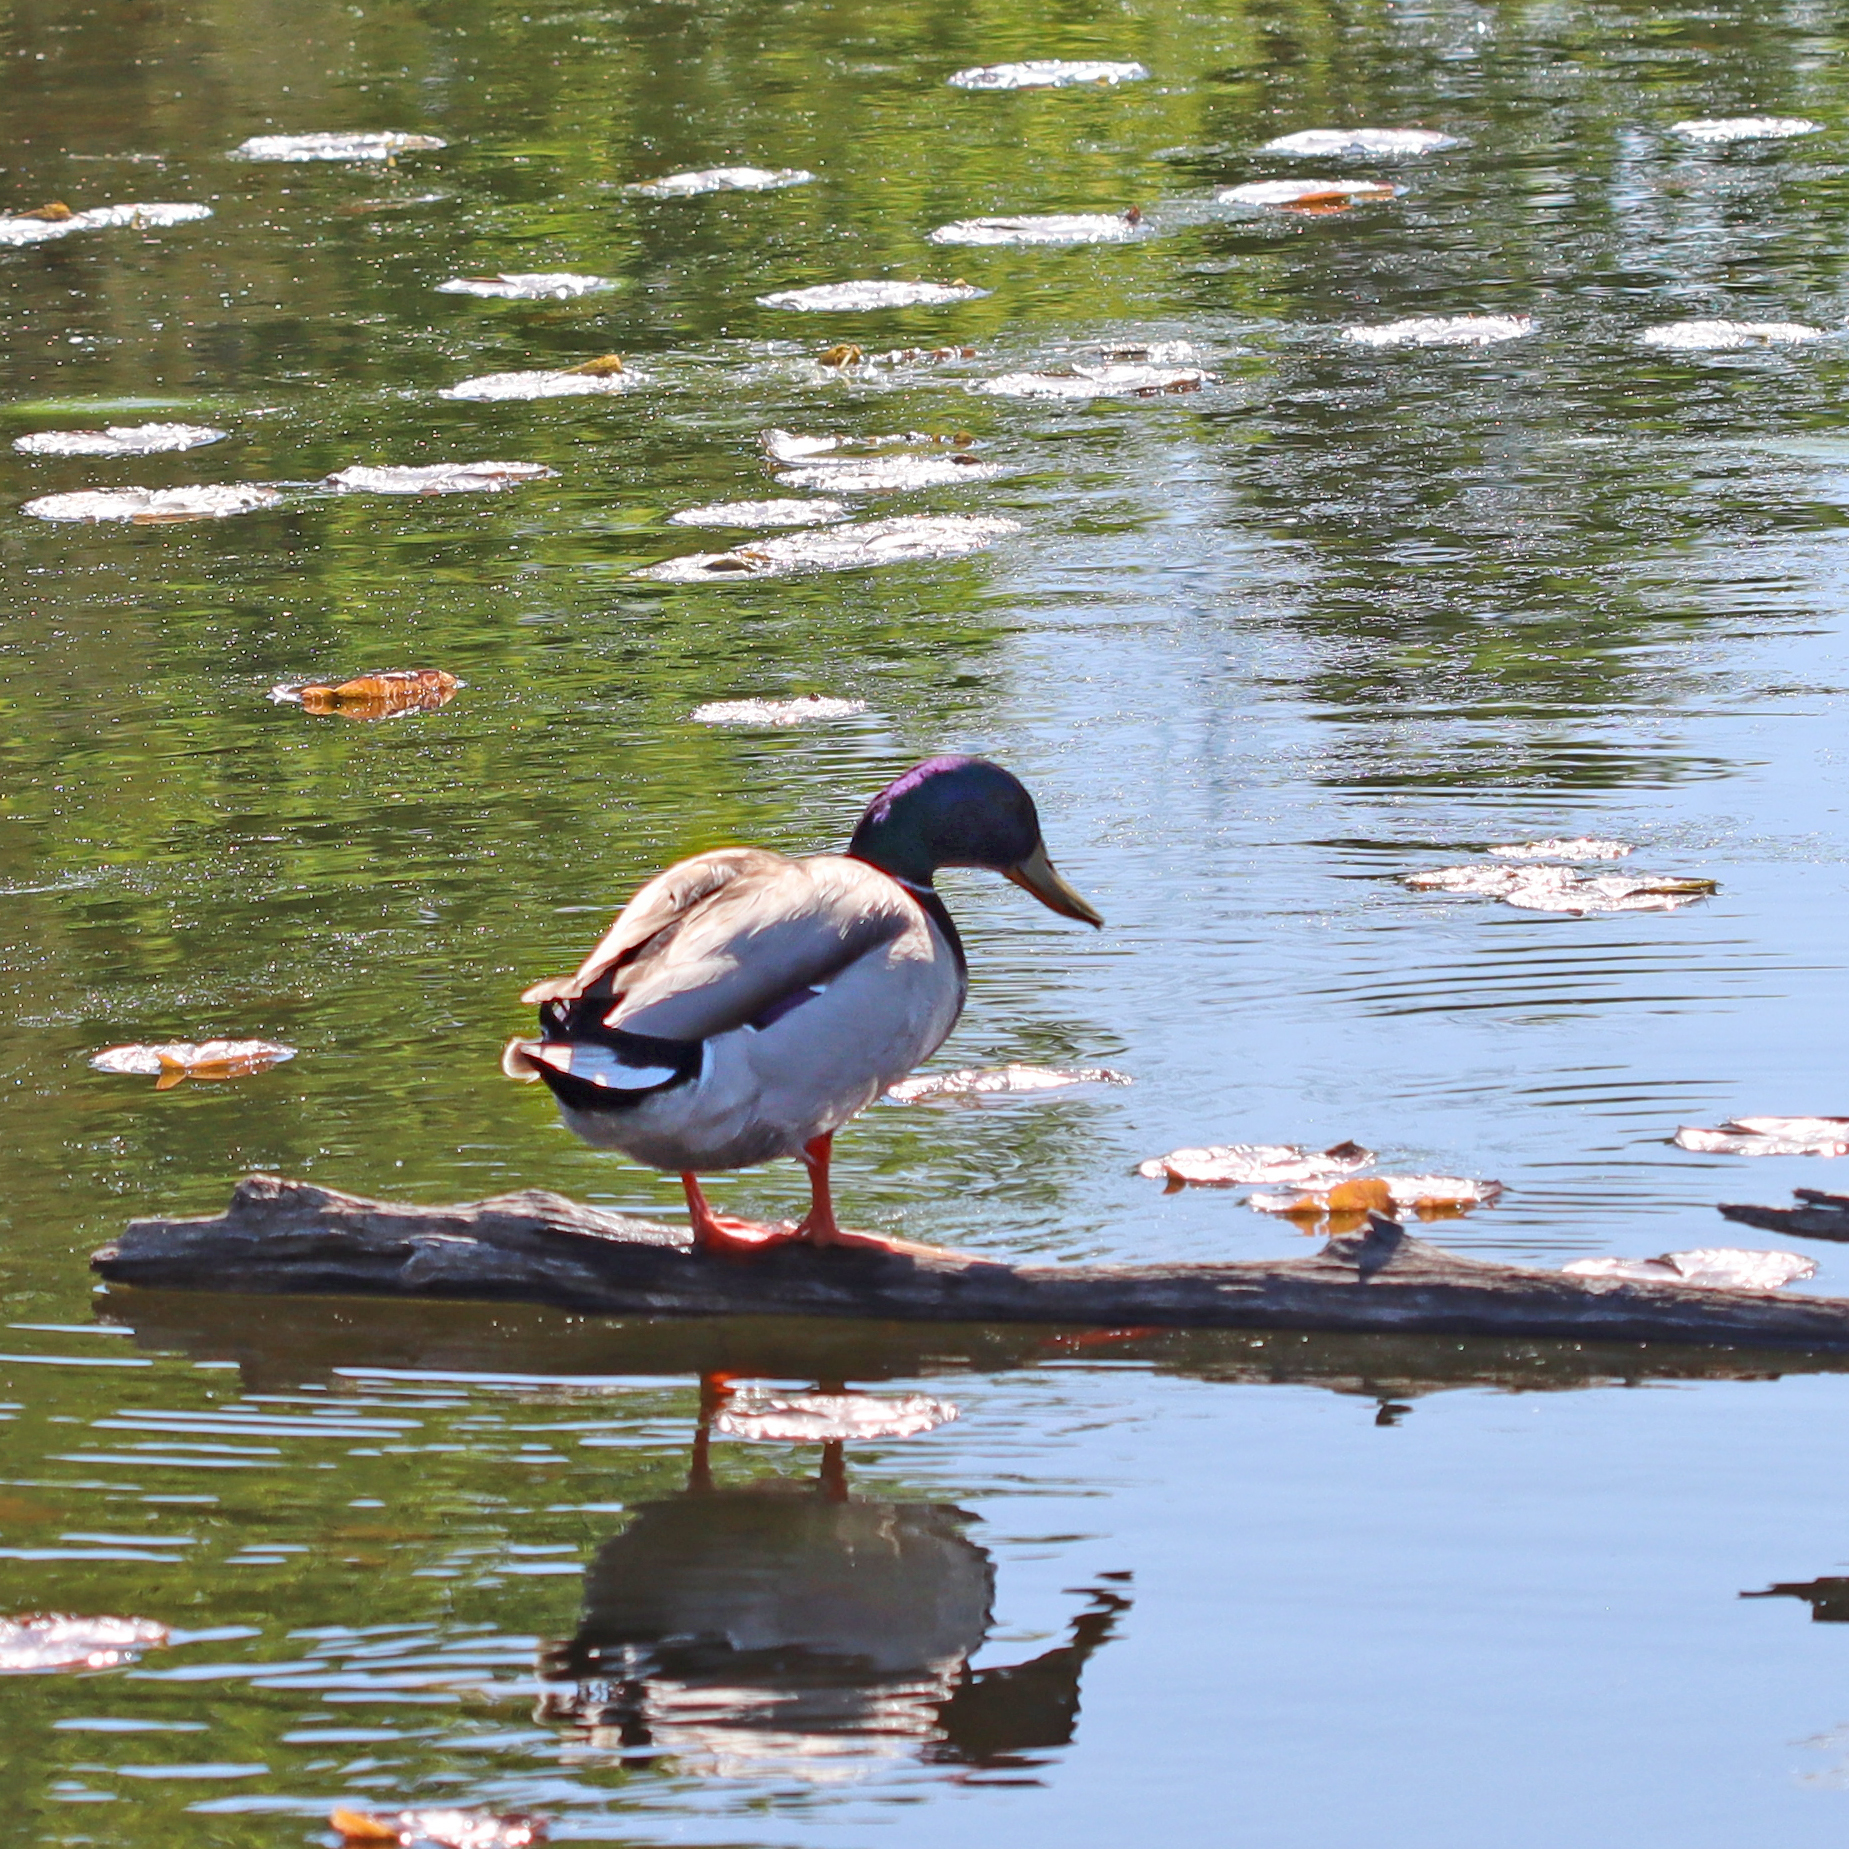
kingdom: Animalia
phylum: Chordata
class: Aves
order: Anseriformes
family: Anatidae
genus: Anas
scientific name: Anas platyrhynchos
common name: Mallard
